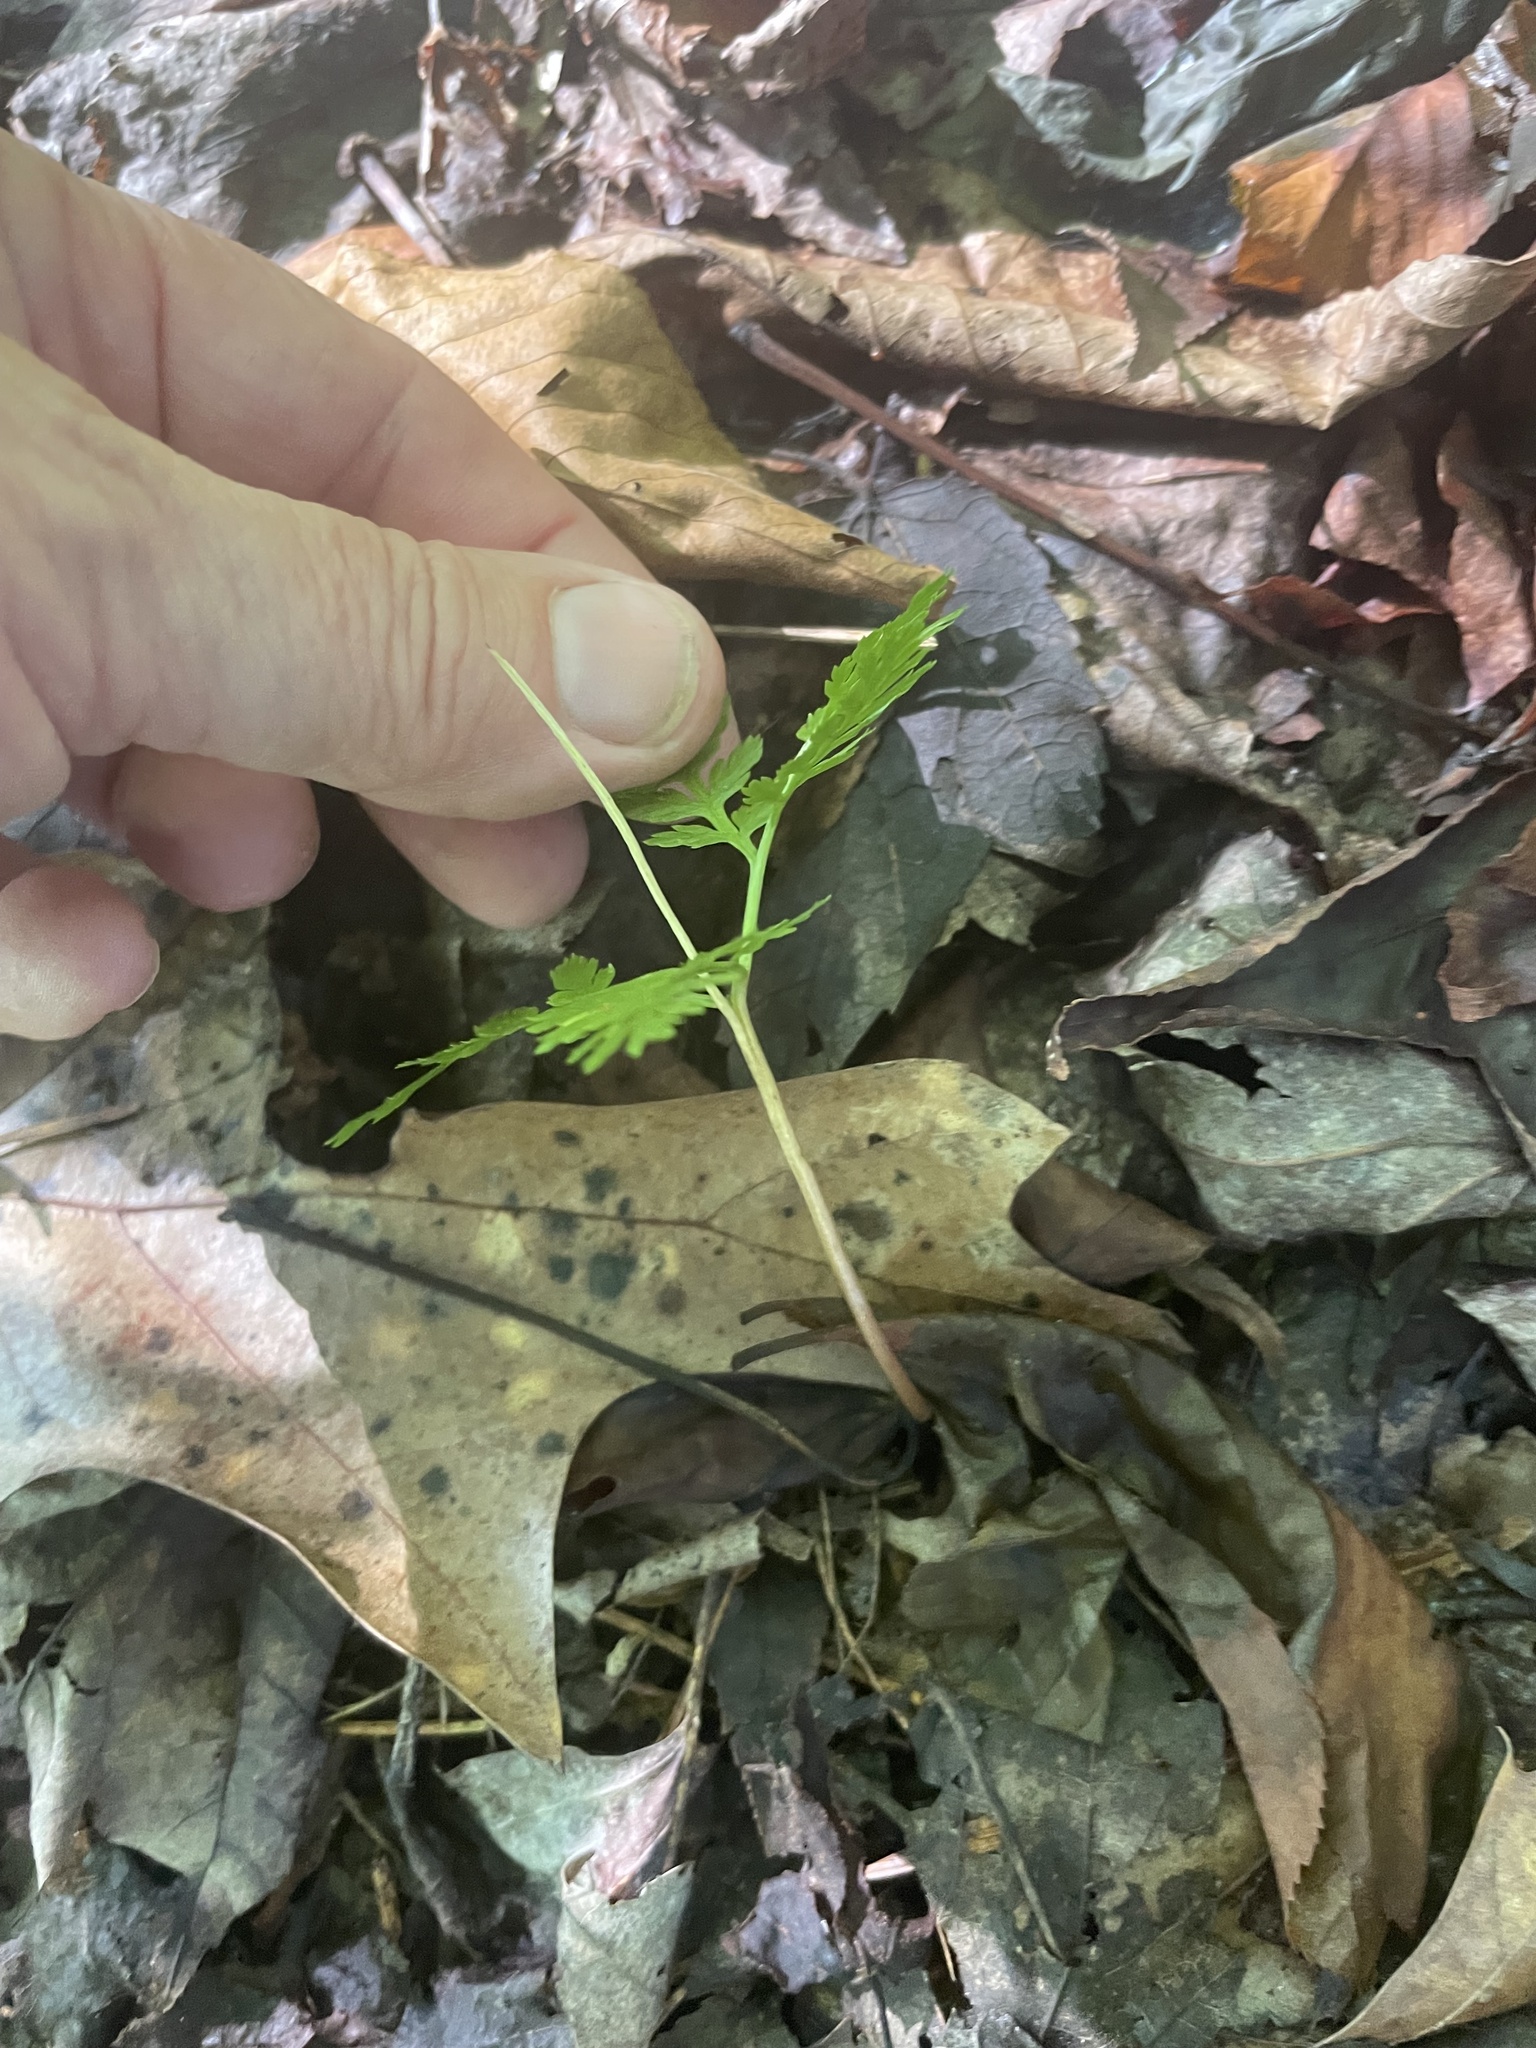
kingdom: Plantae
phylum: Tracheophyta
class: Polypodiopsida
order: Ophioglossales
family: Ophioglossaceae
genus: Botrypus
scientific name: Botrypus virginianus
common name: Common grapefern
